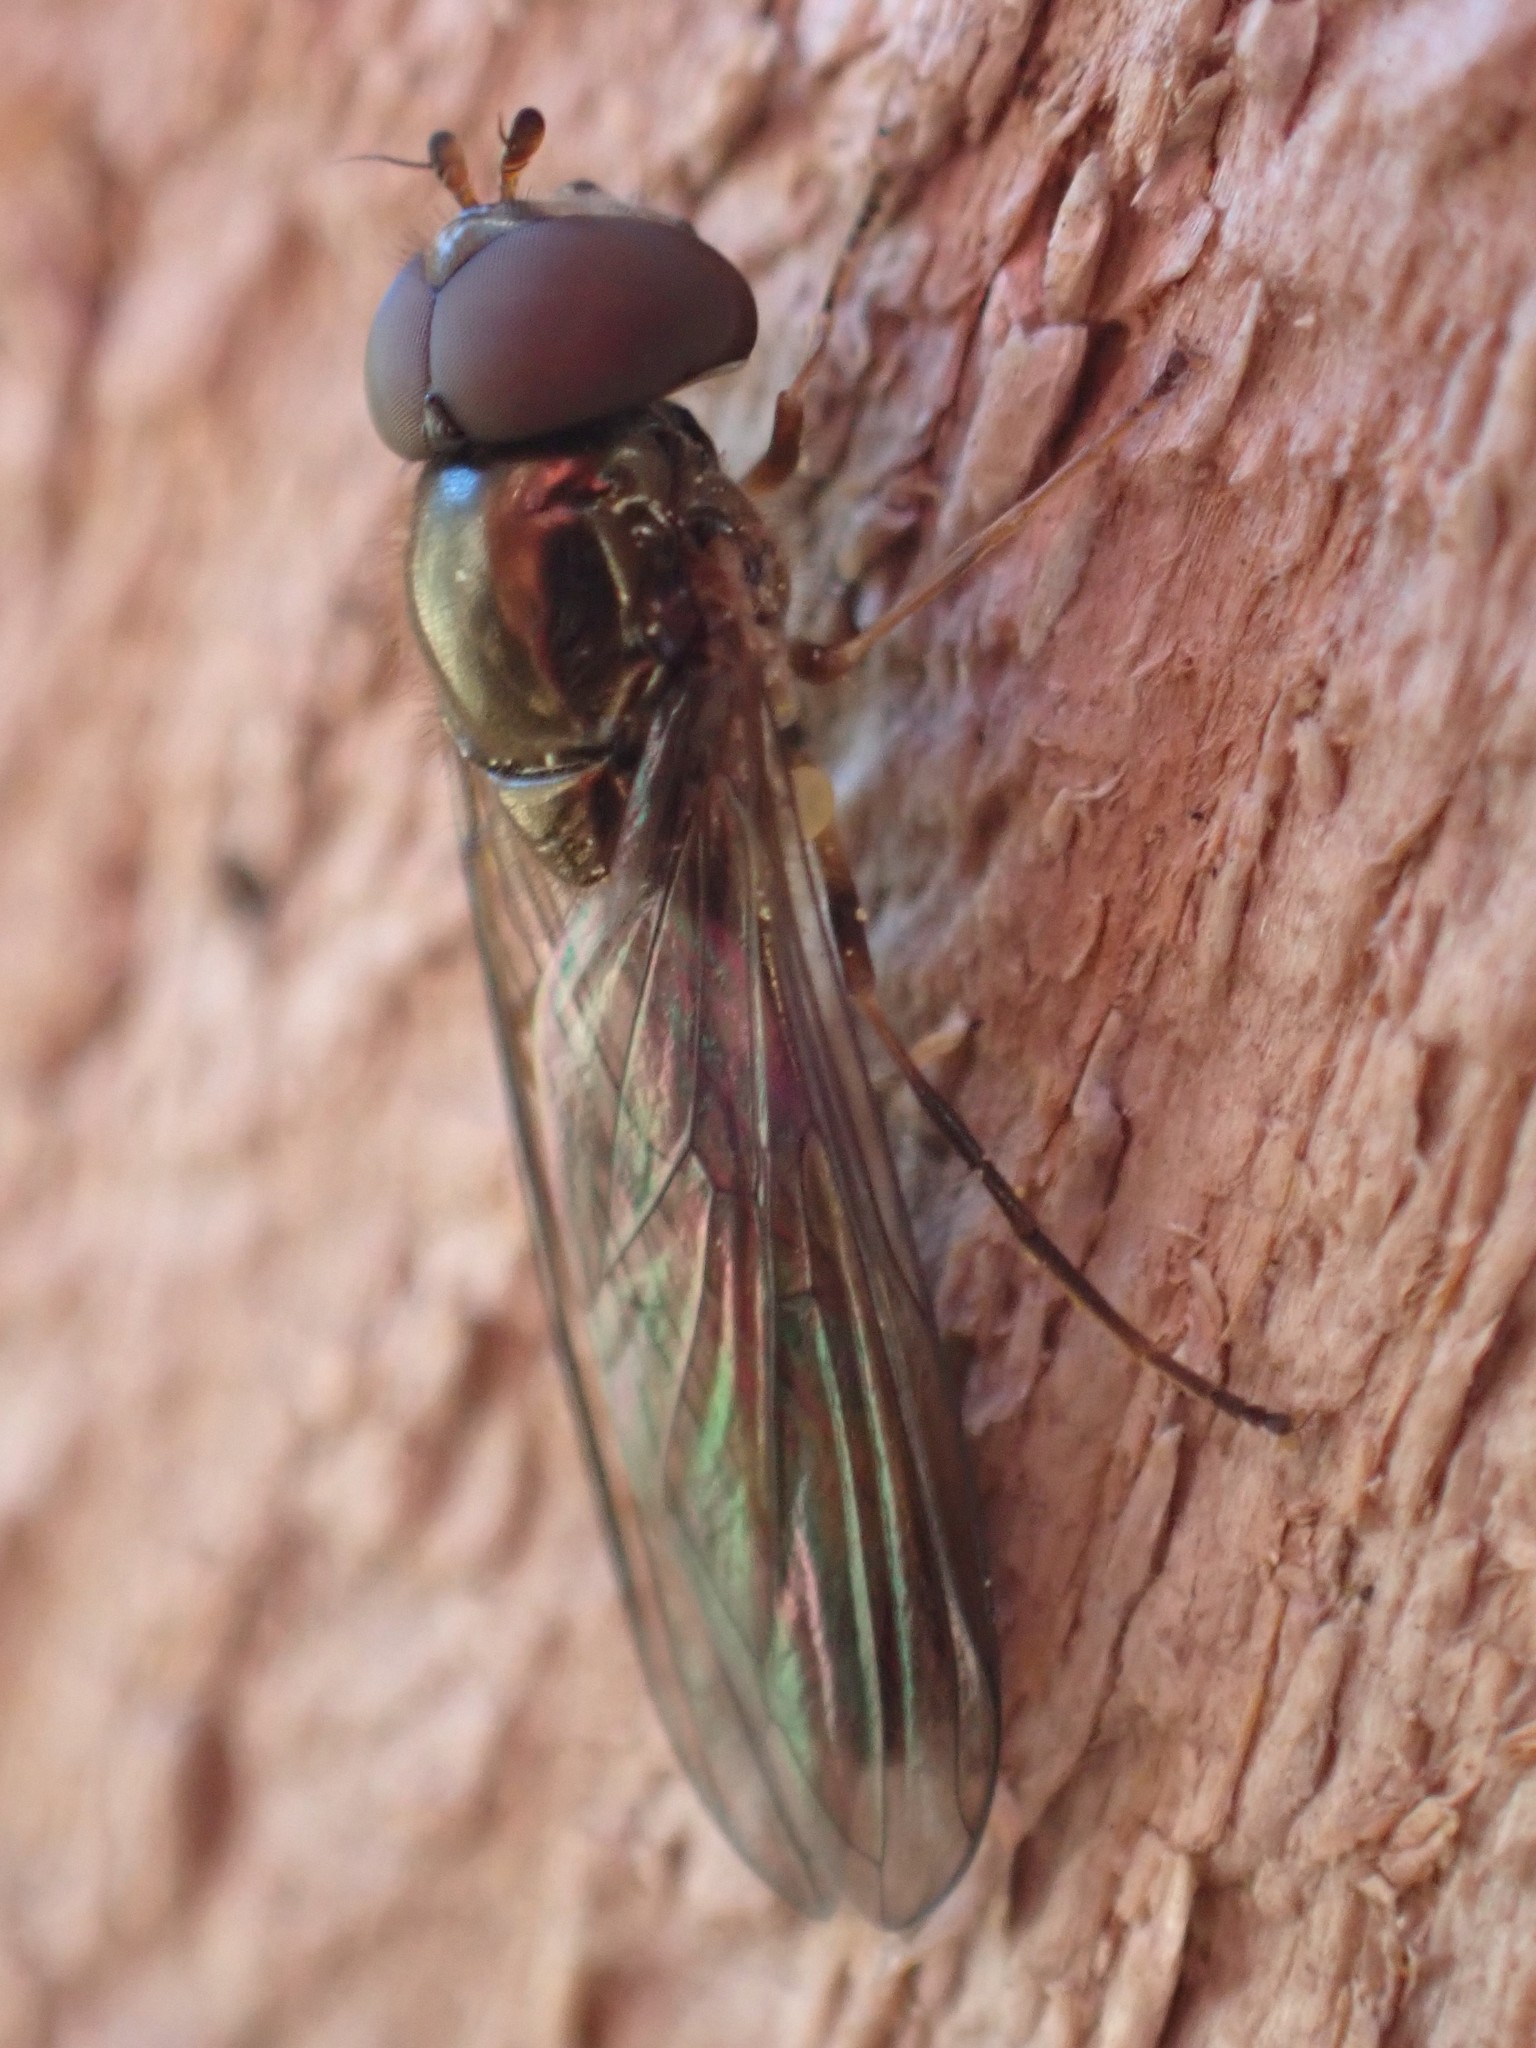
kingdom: Animalia
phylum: Arthropoda
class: Insecta
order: Diptera
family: Syrphidae
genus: Melanostoma
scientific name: Melanostoma mellina
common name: Hover fly
